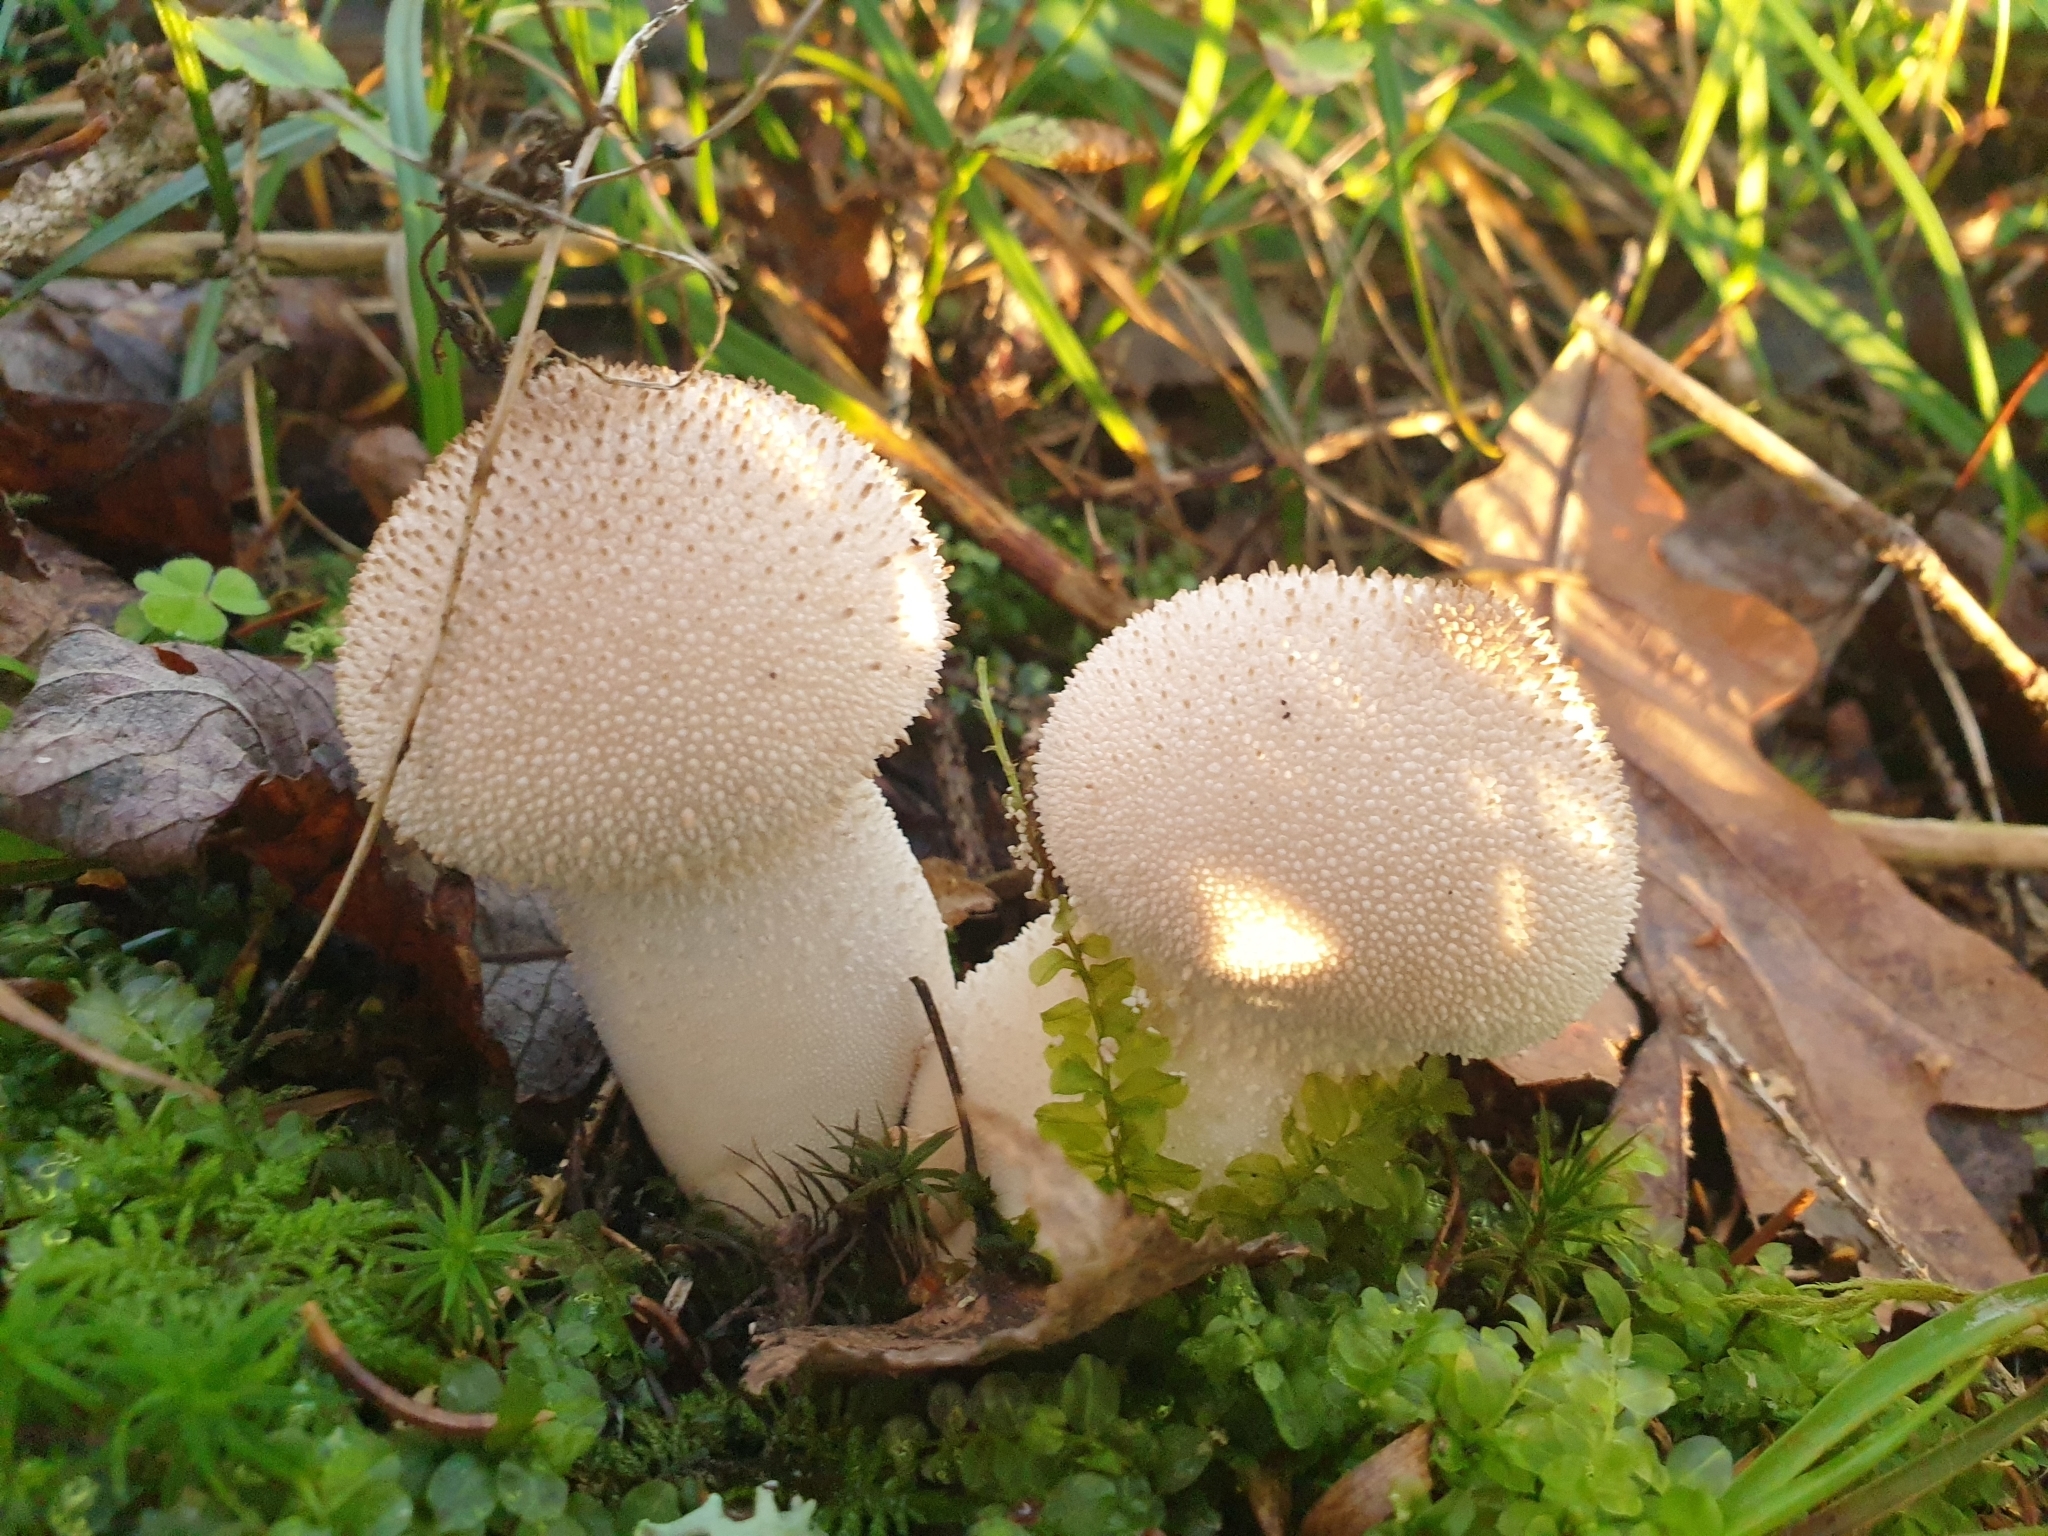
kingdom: Fungi
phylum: Basidiomycota
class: Agaricomycetes
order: Agaricales
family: Lycoperdaceae
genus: Lycoperdon
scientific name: Lycoperdon perlatum
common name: Common puffball
